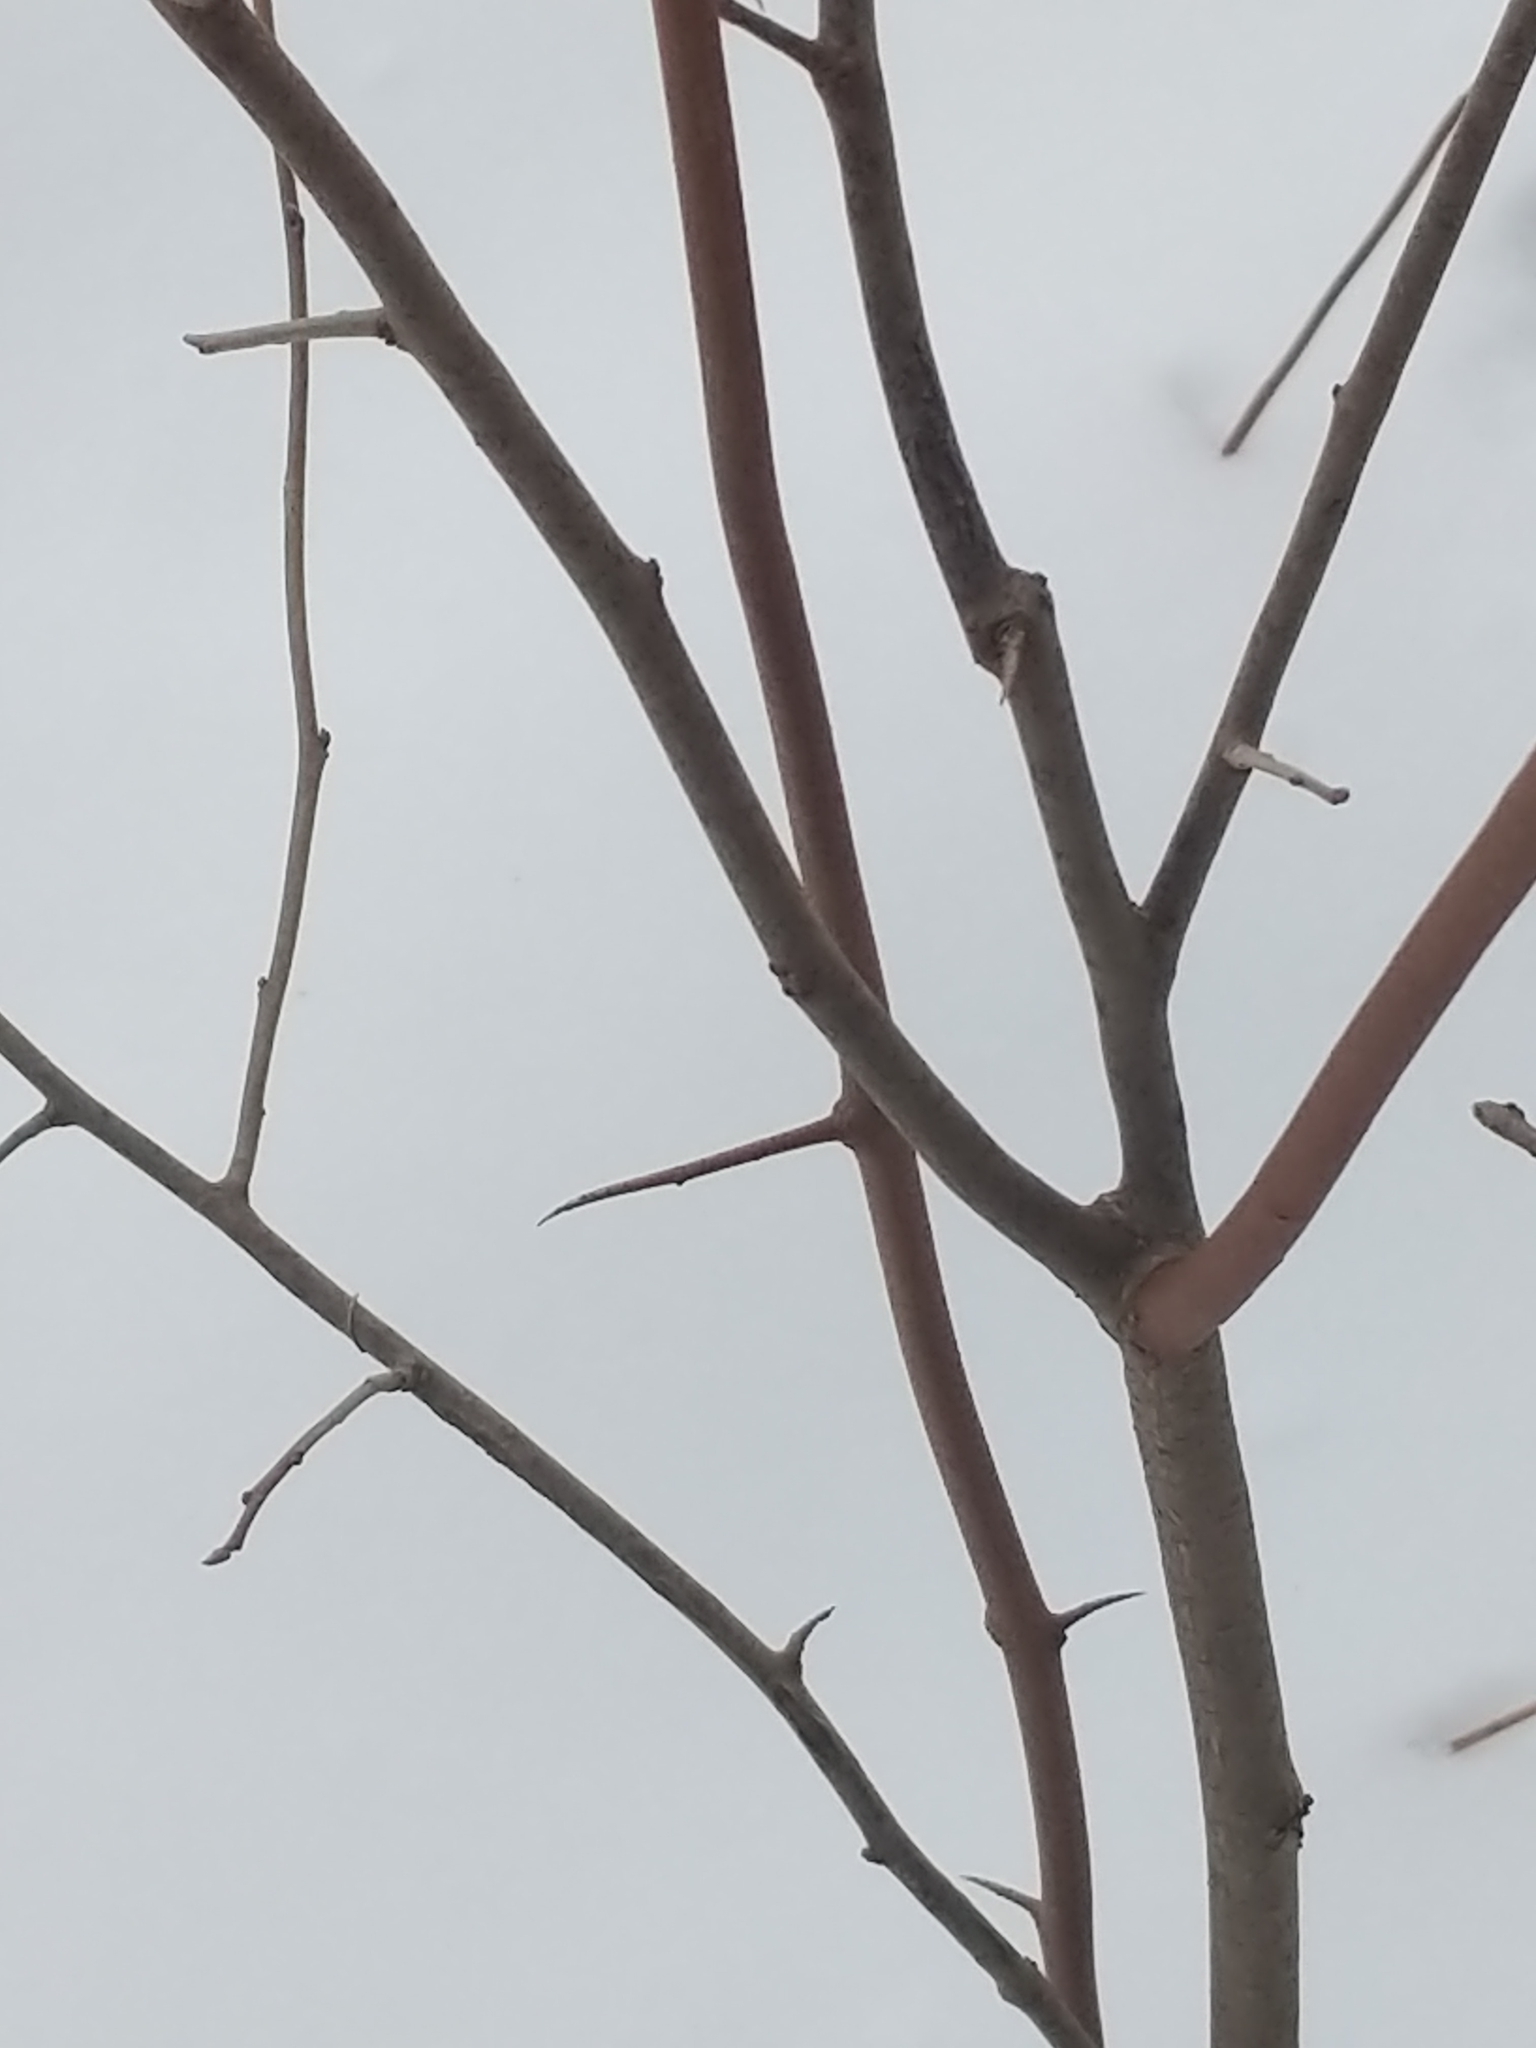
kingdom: Plantae
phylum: Tracheophyta
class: Magnoliopsida
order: Rosales
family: Elaeagnaceae
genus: Elaeagnus
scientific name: Elaeagnus umbellata
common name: Autumn olive
